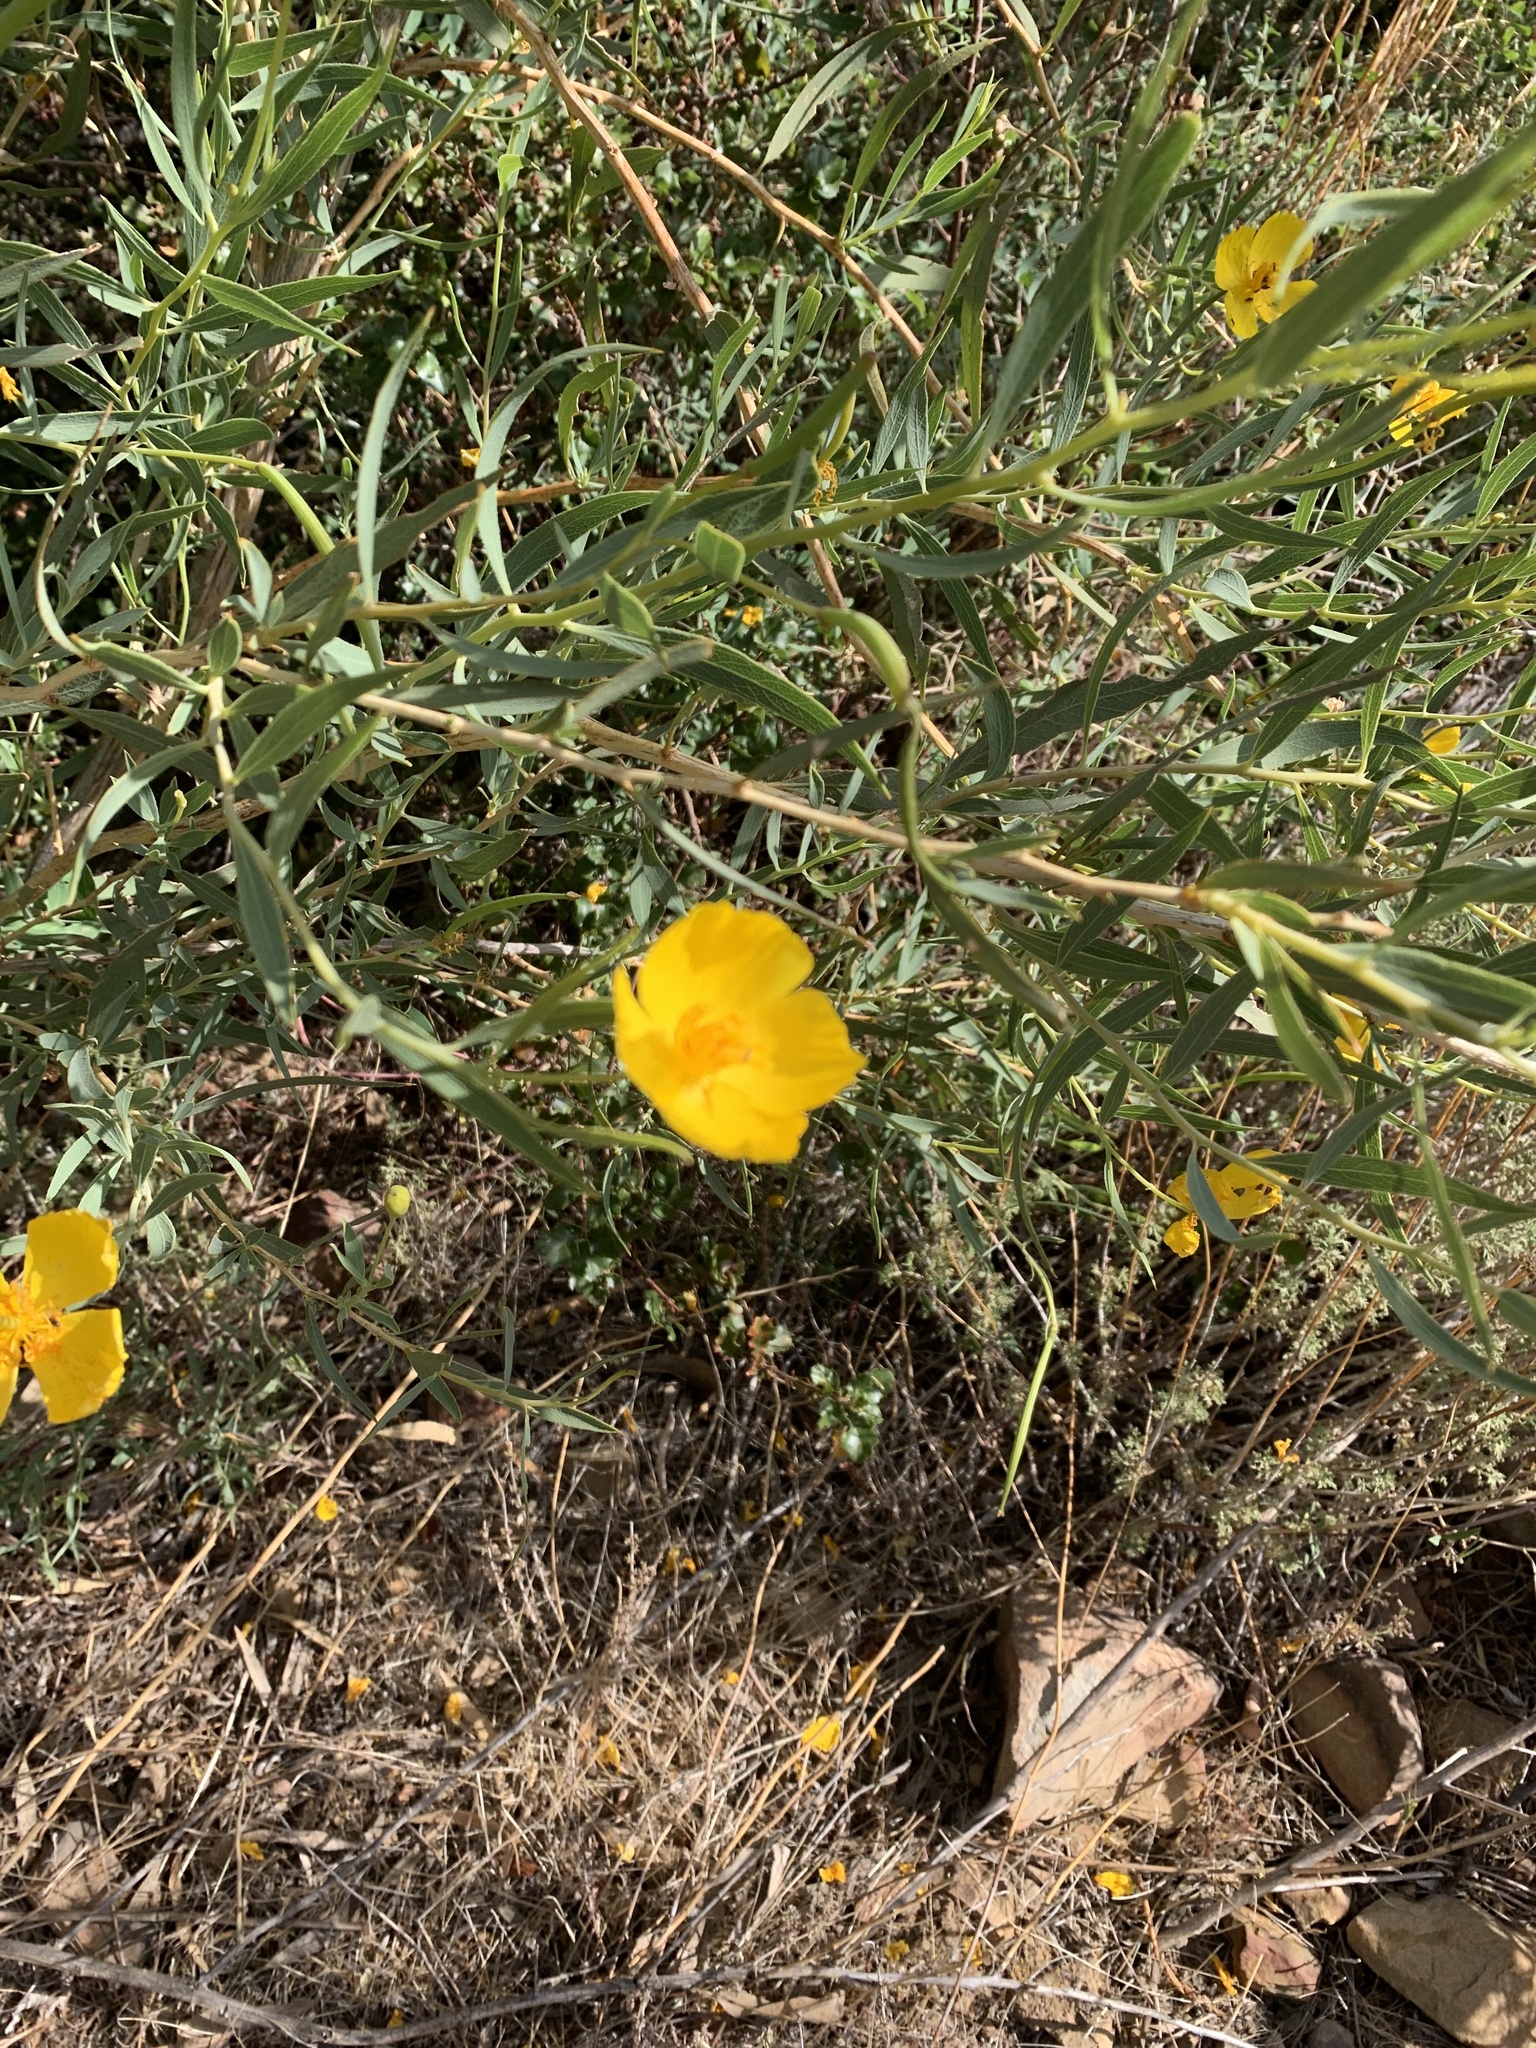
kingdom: Plantae
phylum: Tracheophyta
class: Magnoliopsida
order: Ranunculales
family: Papaveraceae
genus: Dendromecon
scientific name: Dendromecon rigida
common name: Tree poppy
